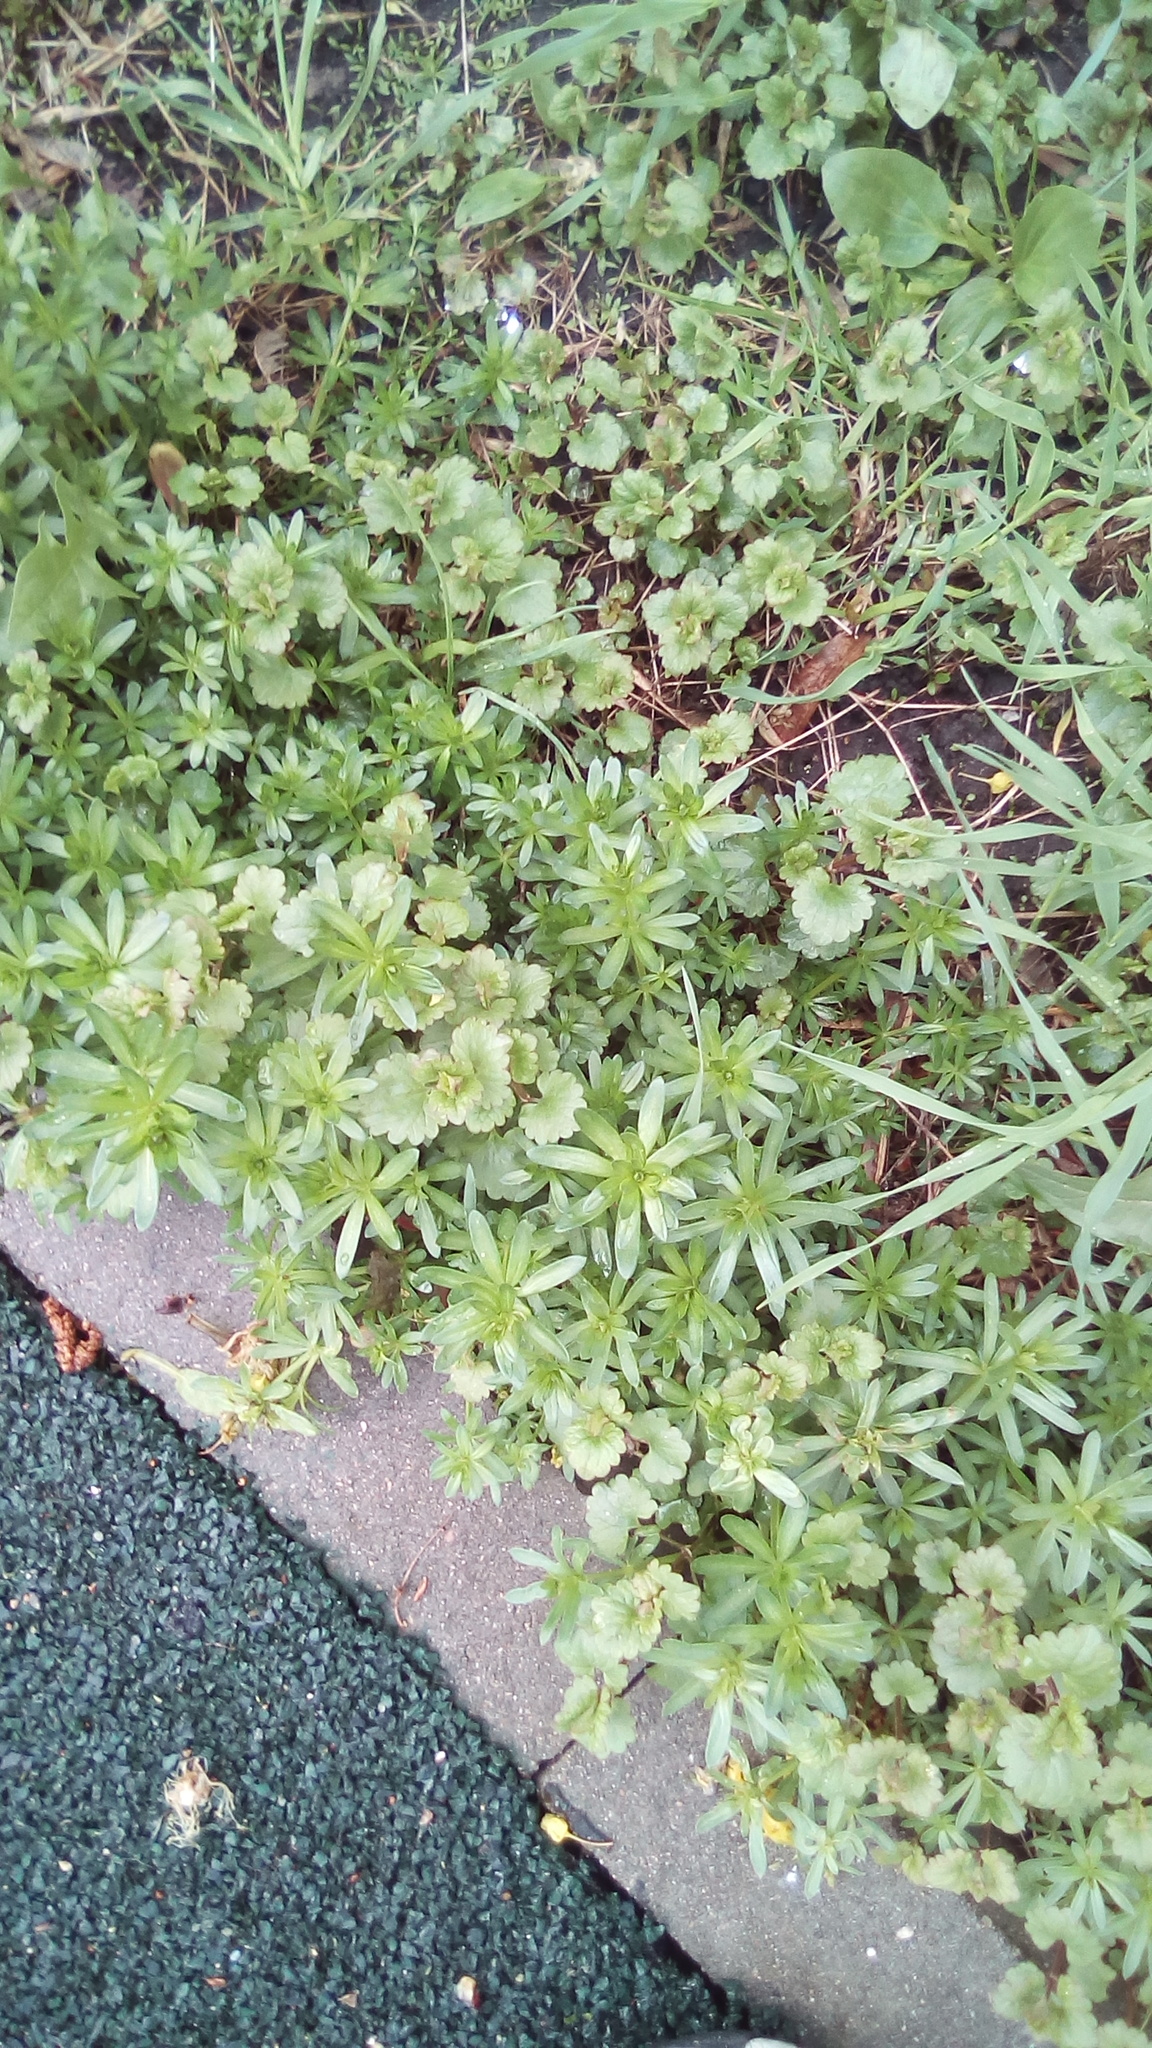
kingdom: Plantae
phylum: Tracheophyta
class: Magnoliopsida
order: Lamiales
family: Lamiaceae
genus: Glechoma
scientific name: Glechoma hederacea
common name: Ground ivy
